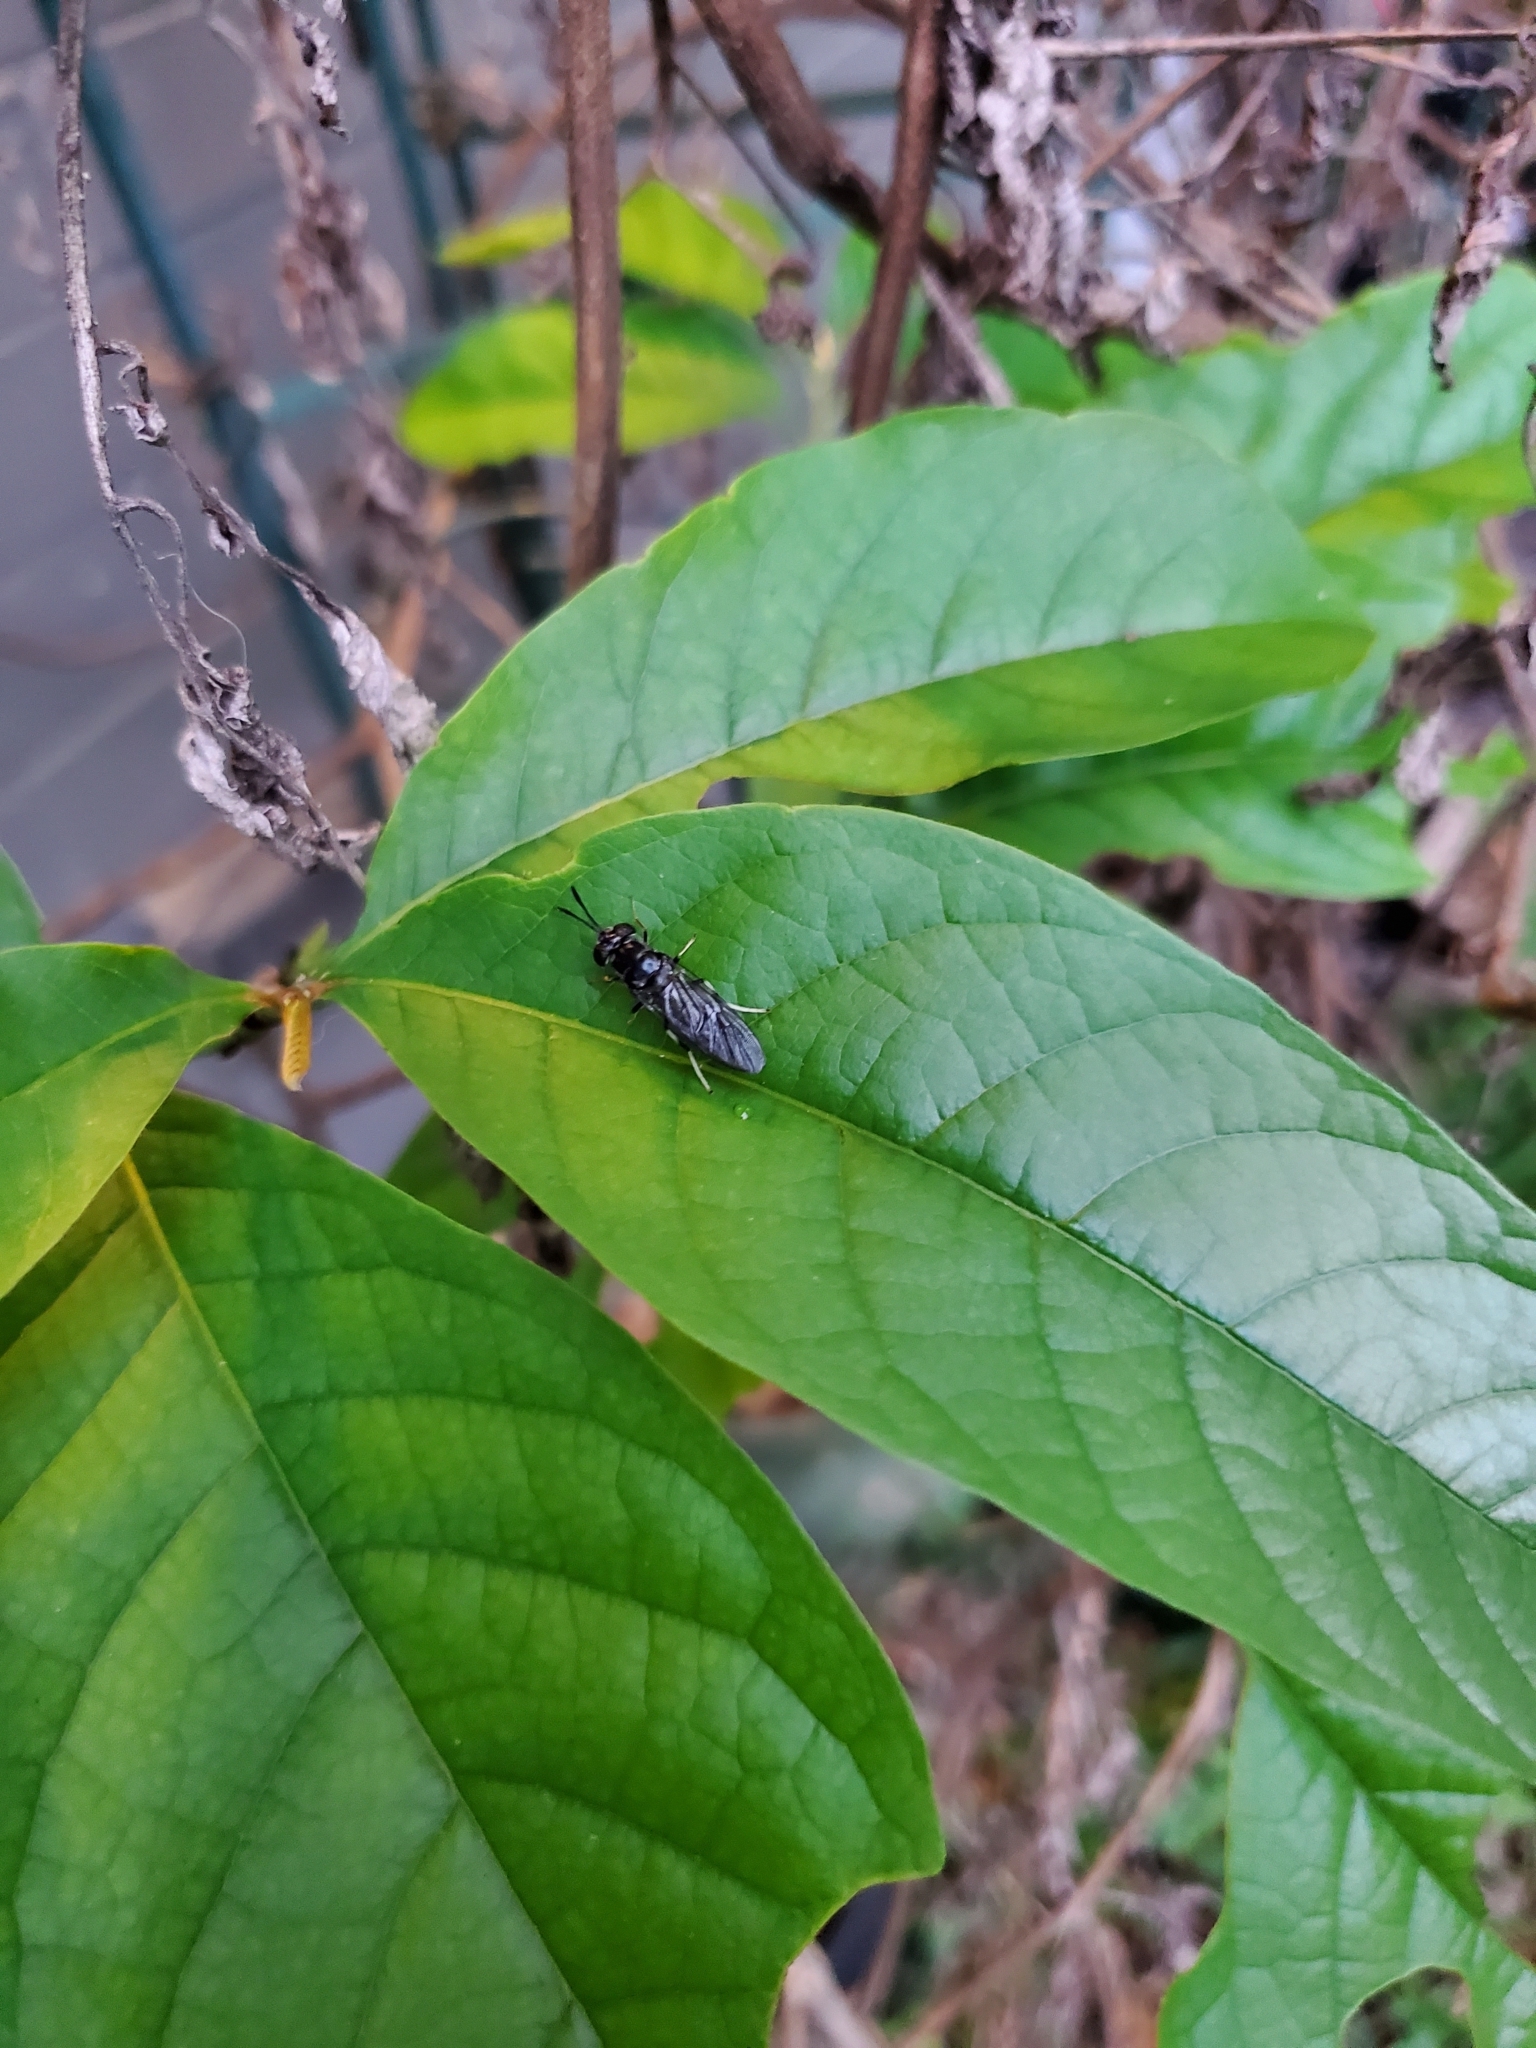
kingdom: Animalia
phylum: Arthropoda
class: Insecta
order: Diptera
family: Stratiomyidae
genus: Hermetia
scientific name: Hermetia illucens
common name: Black soldier fly
